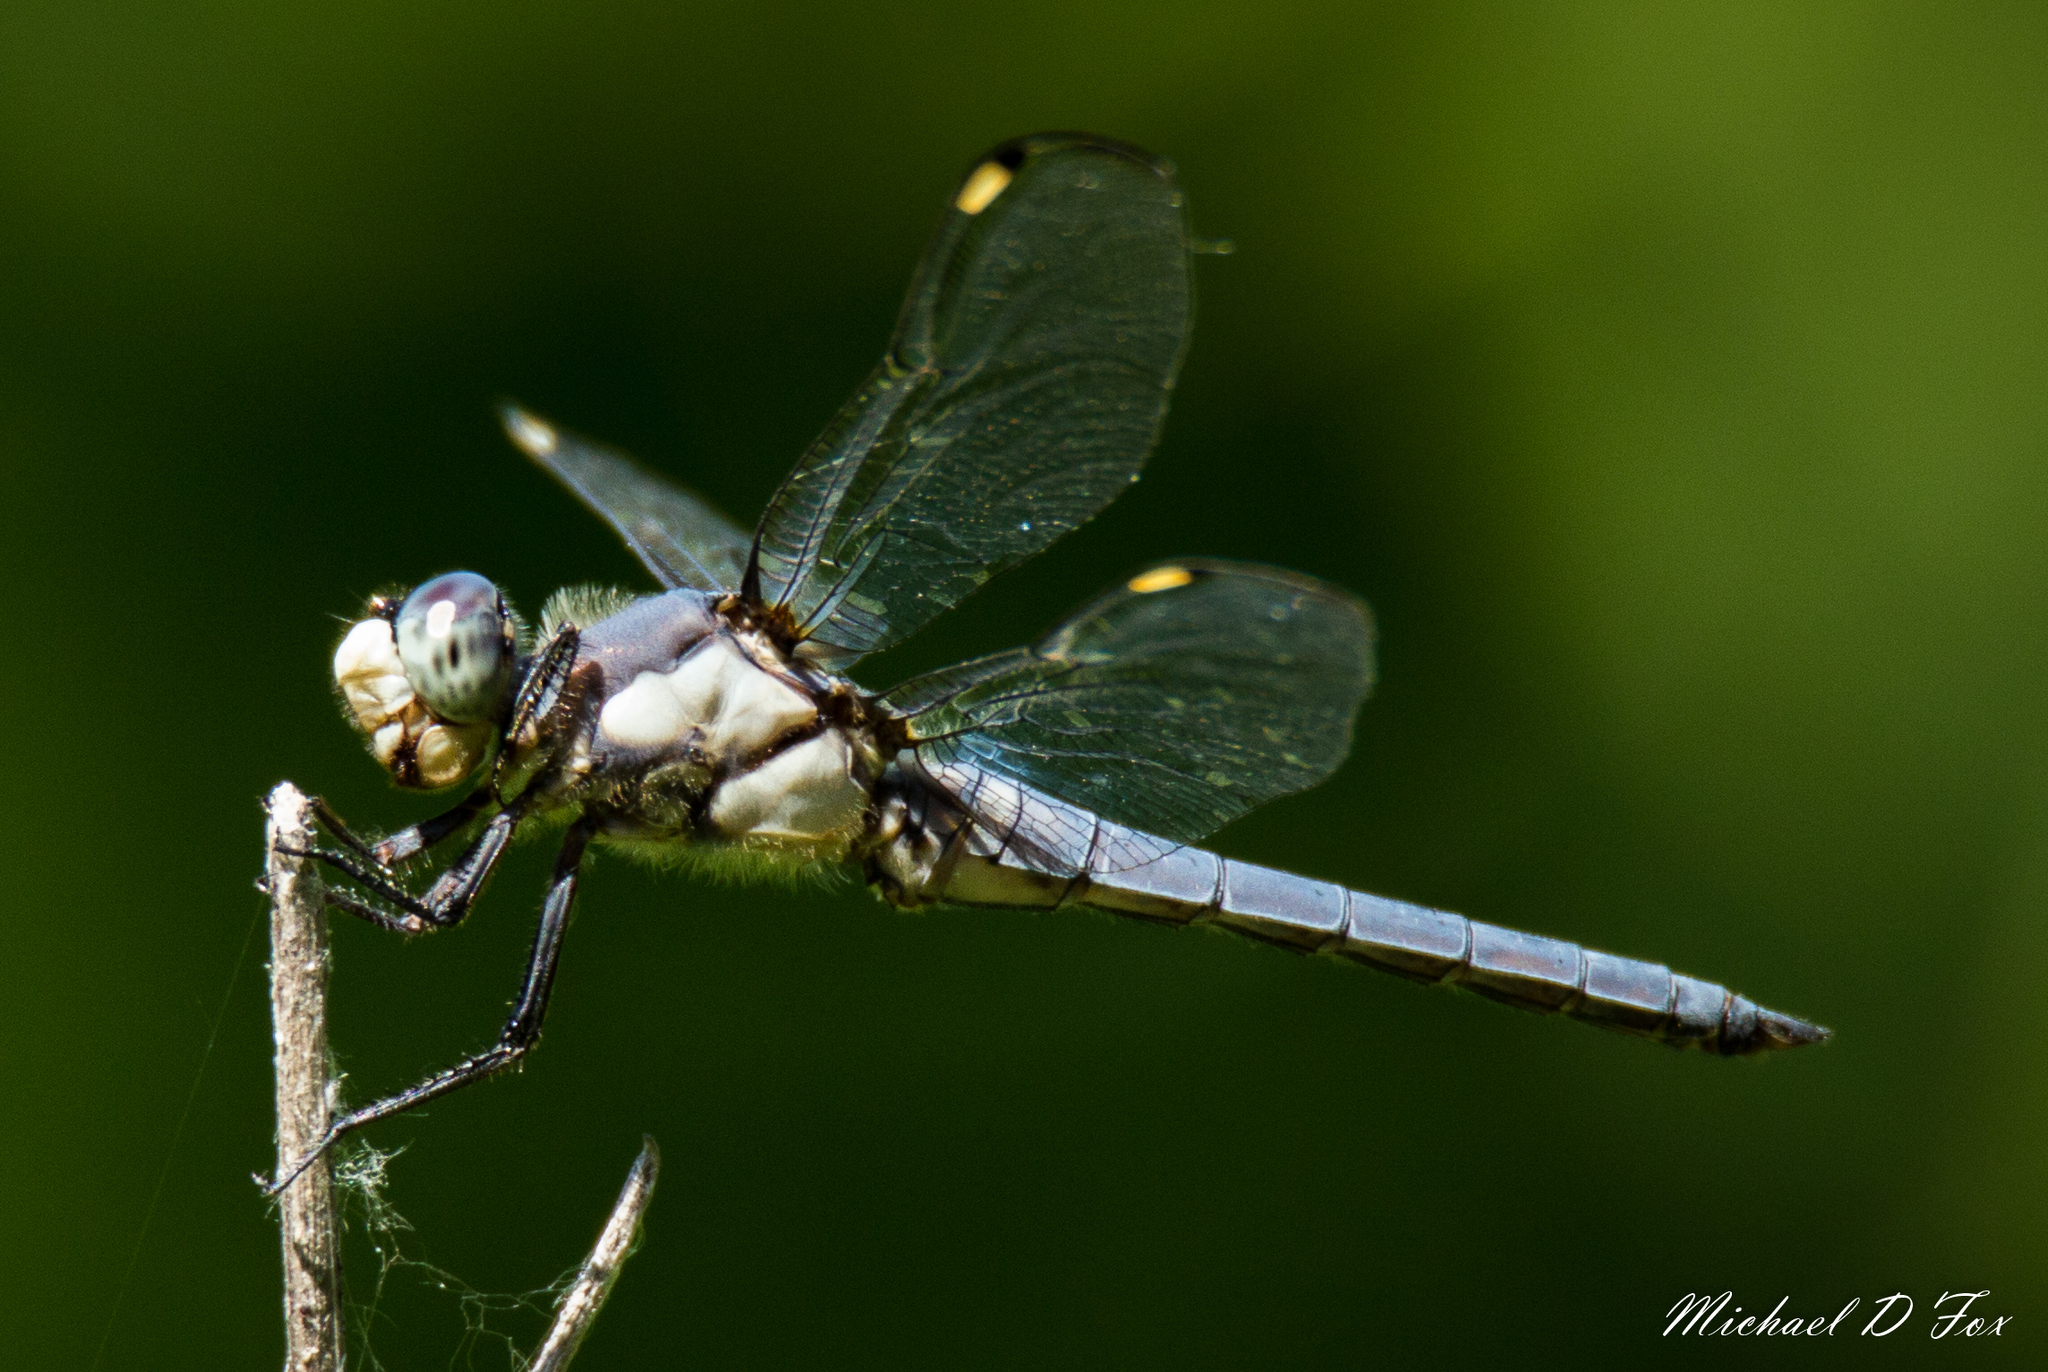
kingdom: Animalia
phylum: Arthropoda
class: Insecta
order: Odonata
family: Libellulidae
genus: Libellula
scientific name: Libellula comanche
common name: Comanche skimmer
